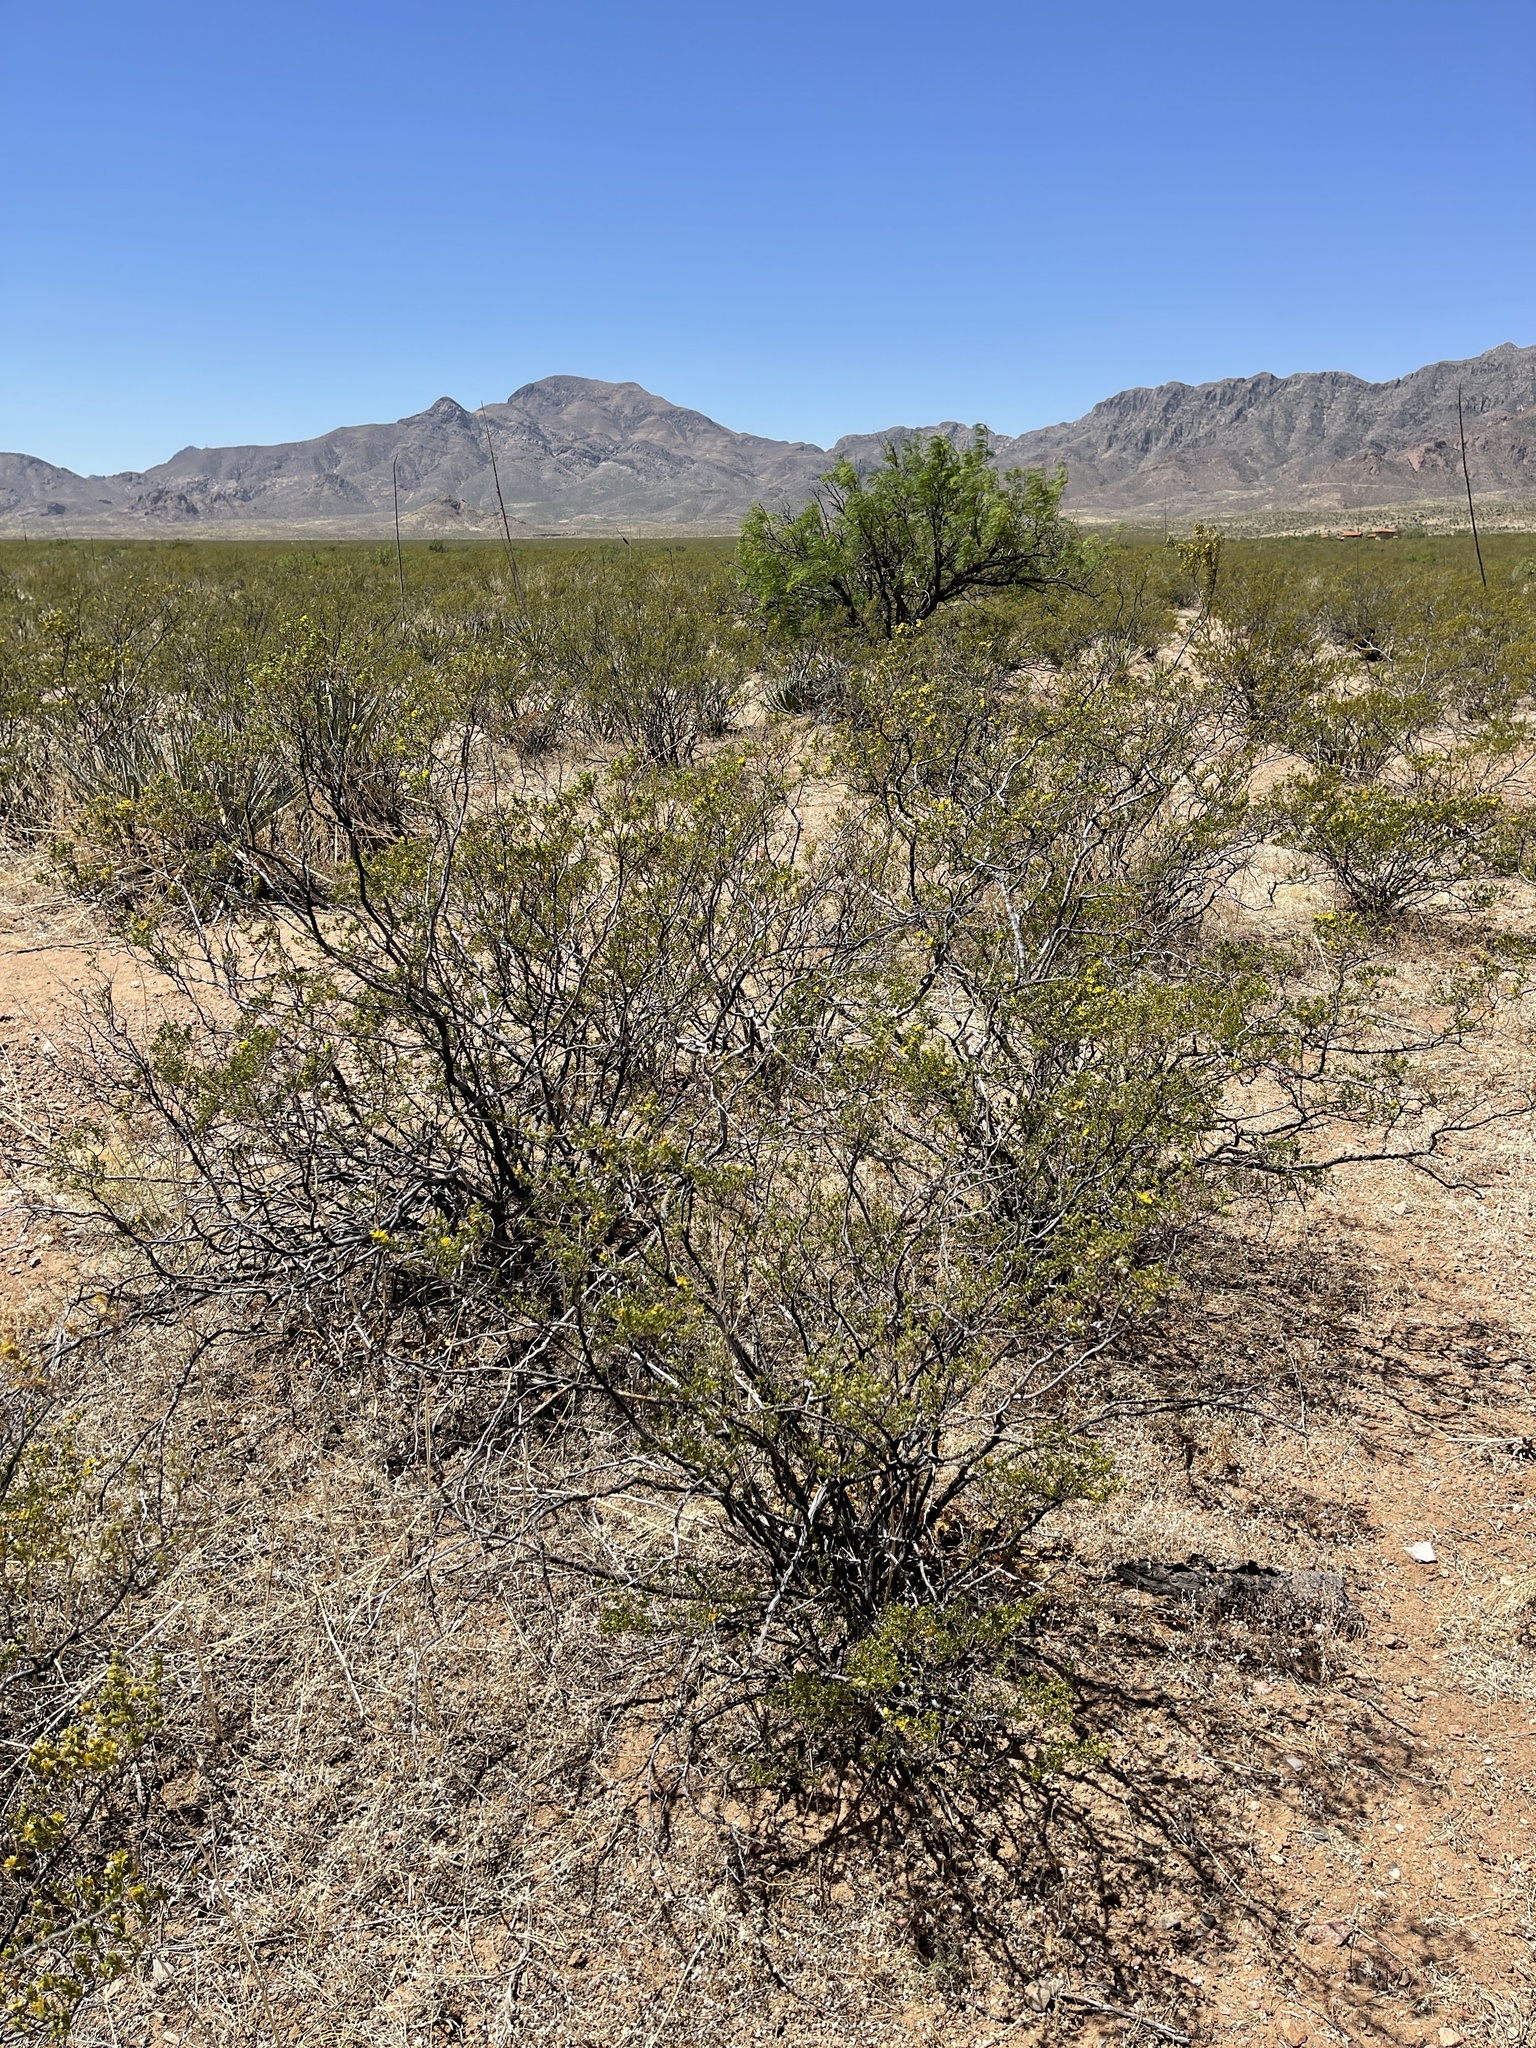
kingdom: Plantae
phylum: Tracheophyta
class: Magnoliopsida
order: Zygophyllales
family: Zygophyllaceae
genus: Larrea
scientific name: Larrea tridentata
